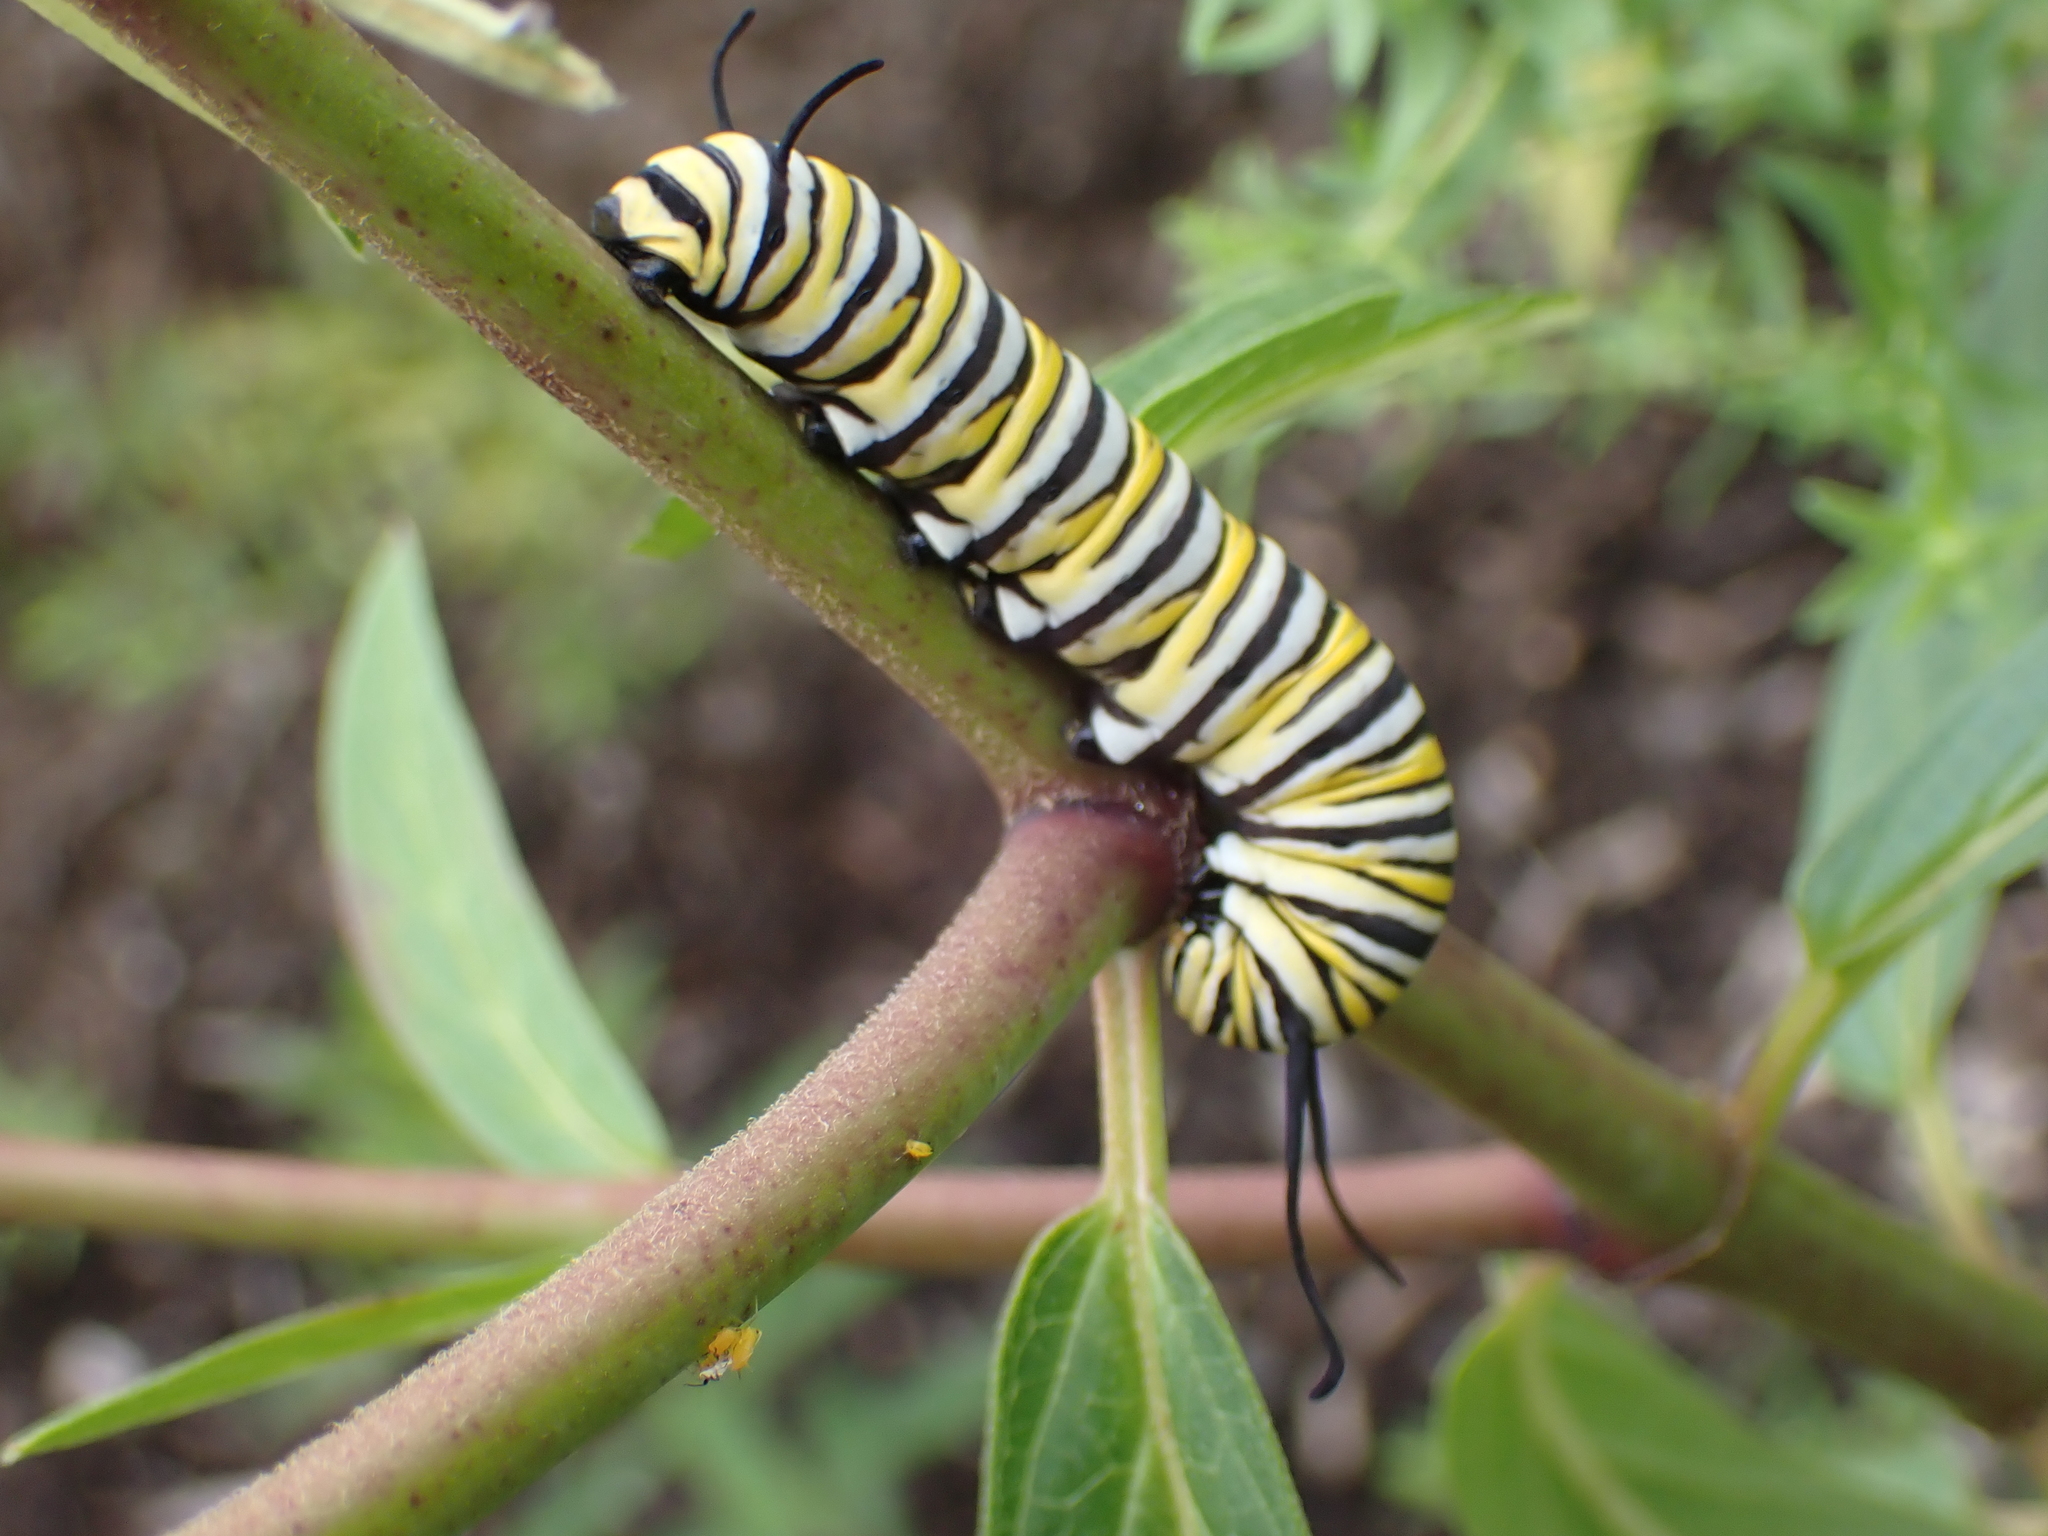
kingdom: Animalia
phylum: Arthropoda
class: Insecta
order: Lepidoptera
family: Nymphalidae
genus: Danaus
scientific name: Danaus plexippus
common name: Monarch
